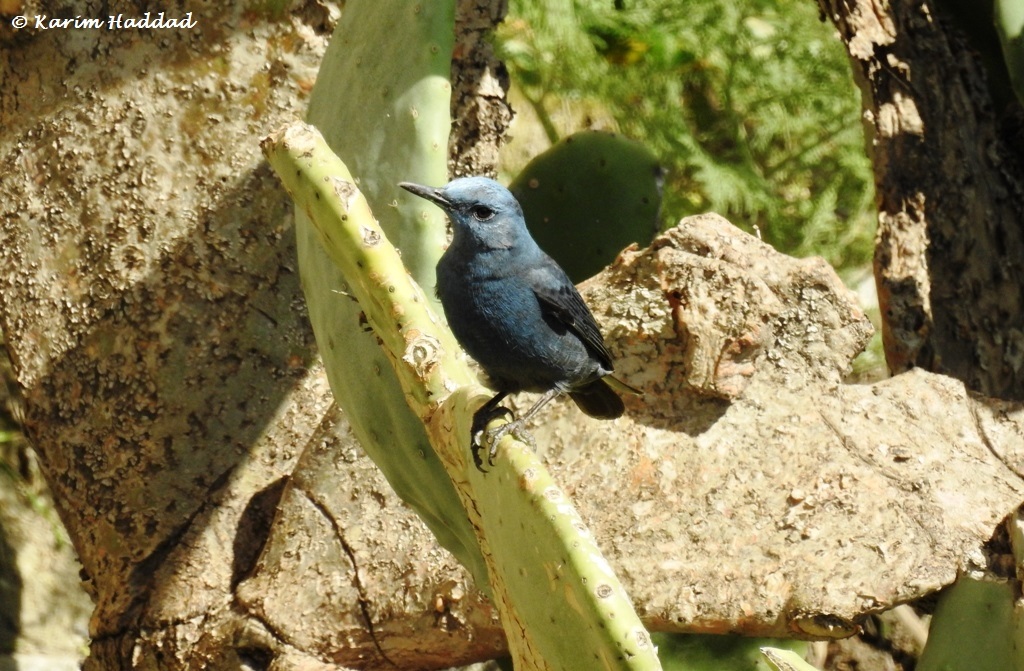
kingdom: Animalia
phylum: Chordata
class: Aves
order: Passeriformes
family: Muscicapidae
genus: Monticola
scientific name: Monticola solitarius
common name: Blue rock thrush
